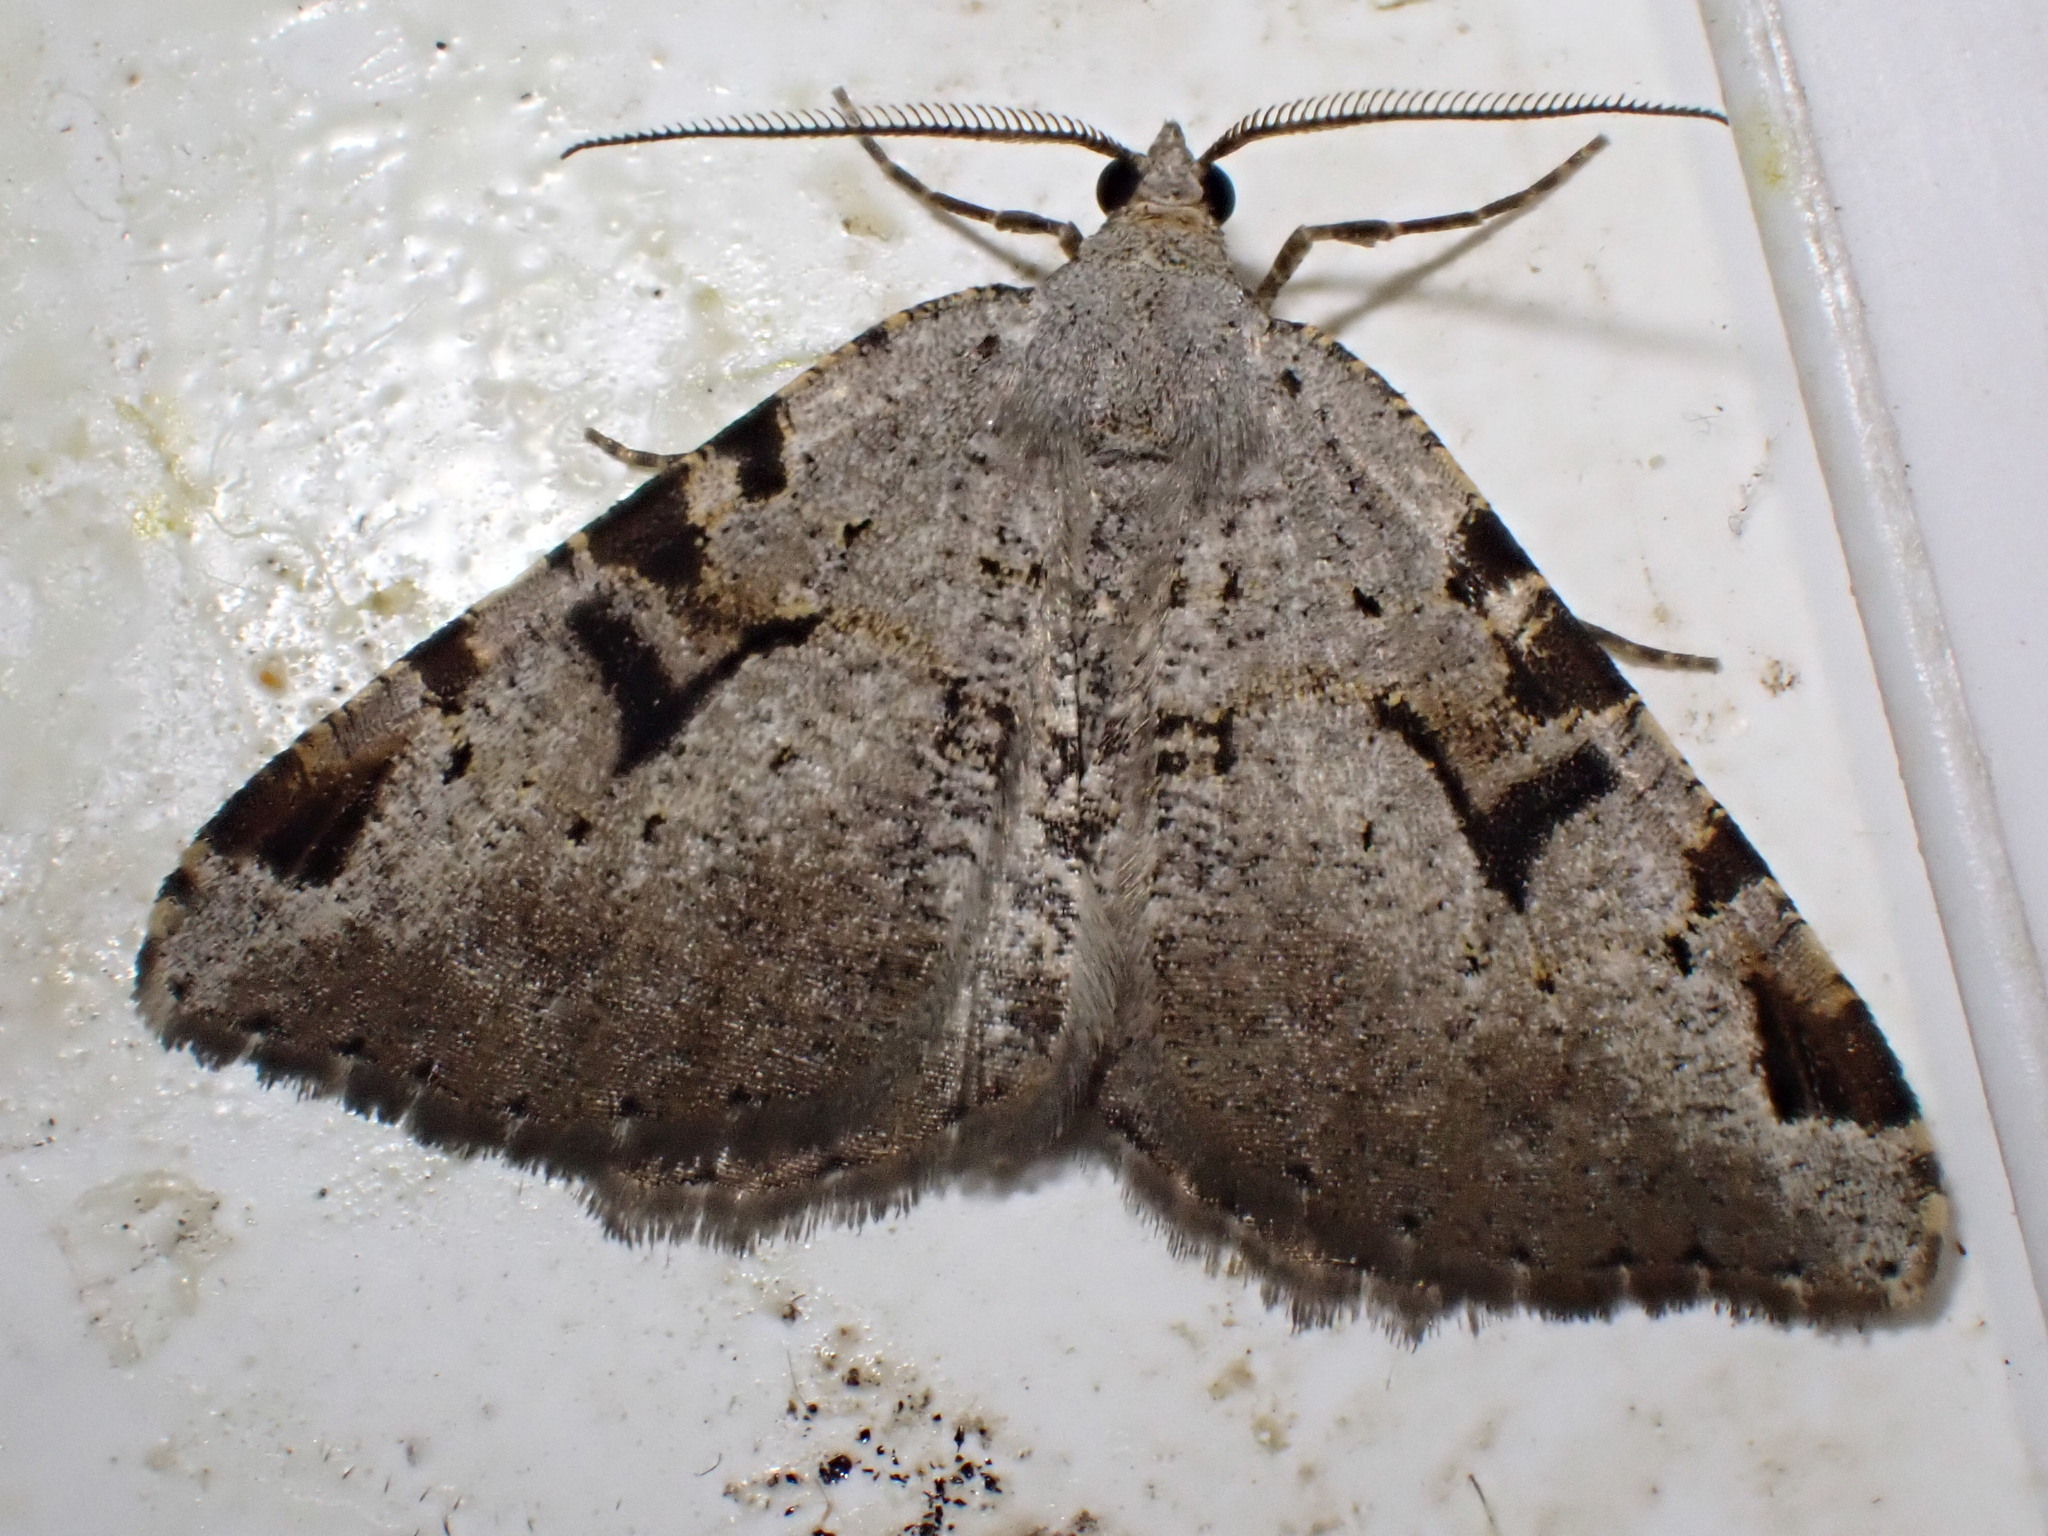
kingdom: Animalia
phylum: Arthropoda
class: Insecta
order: Lepidoptera
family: Geometridae
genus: Macaria
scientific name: Macaria wauaria
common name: V-moth
